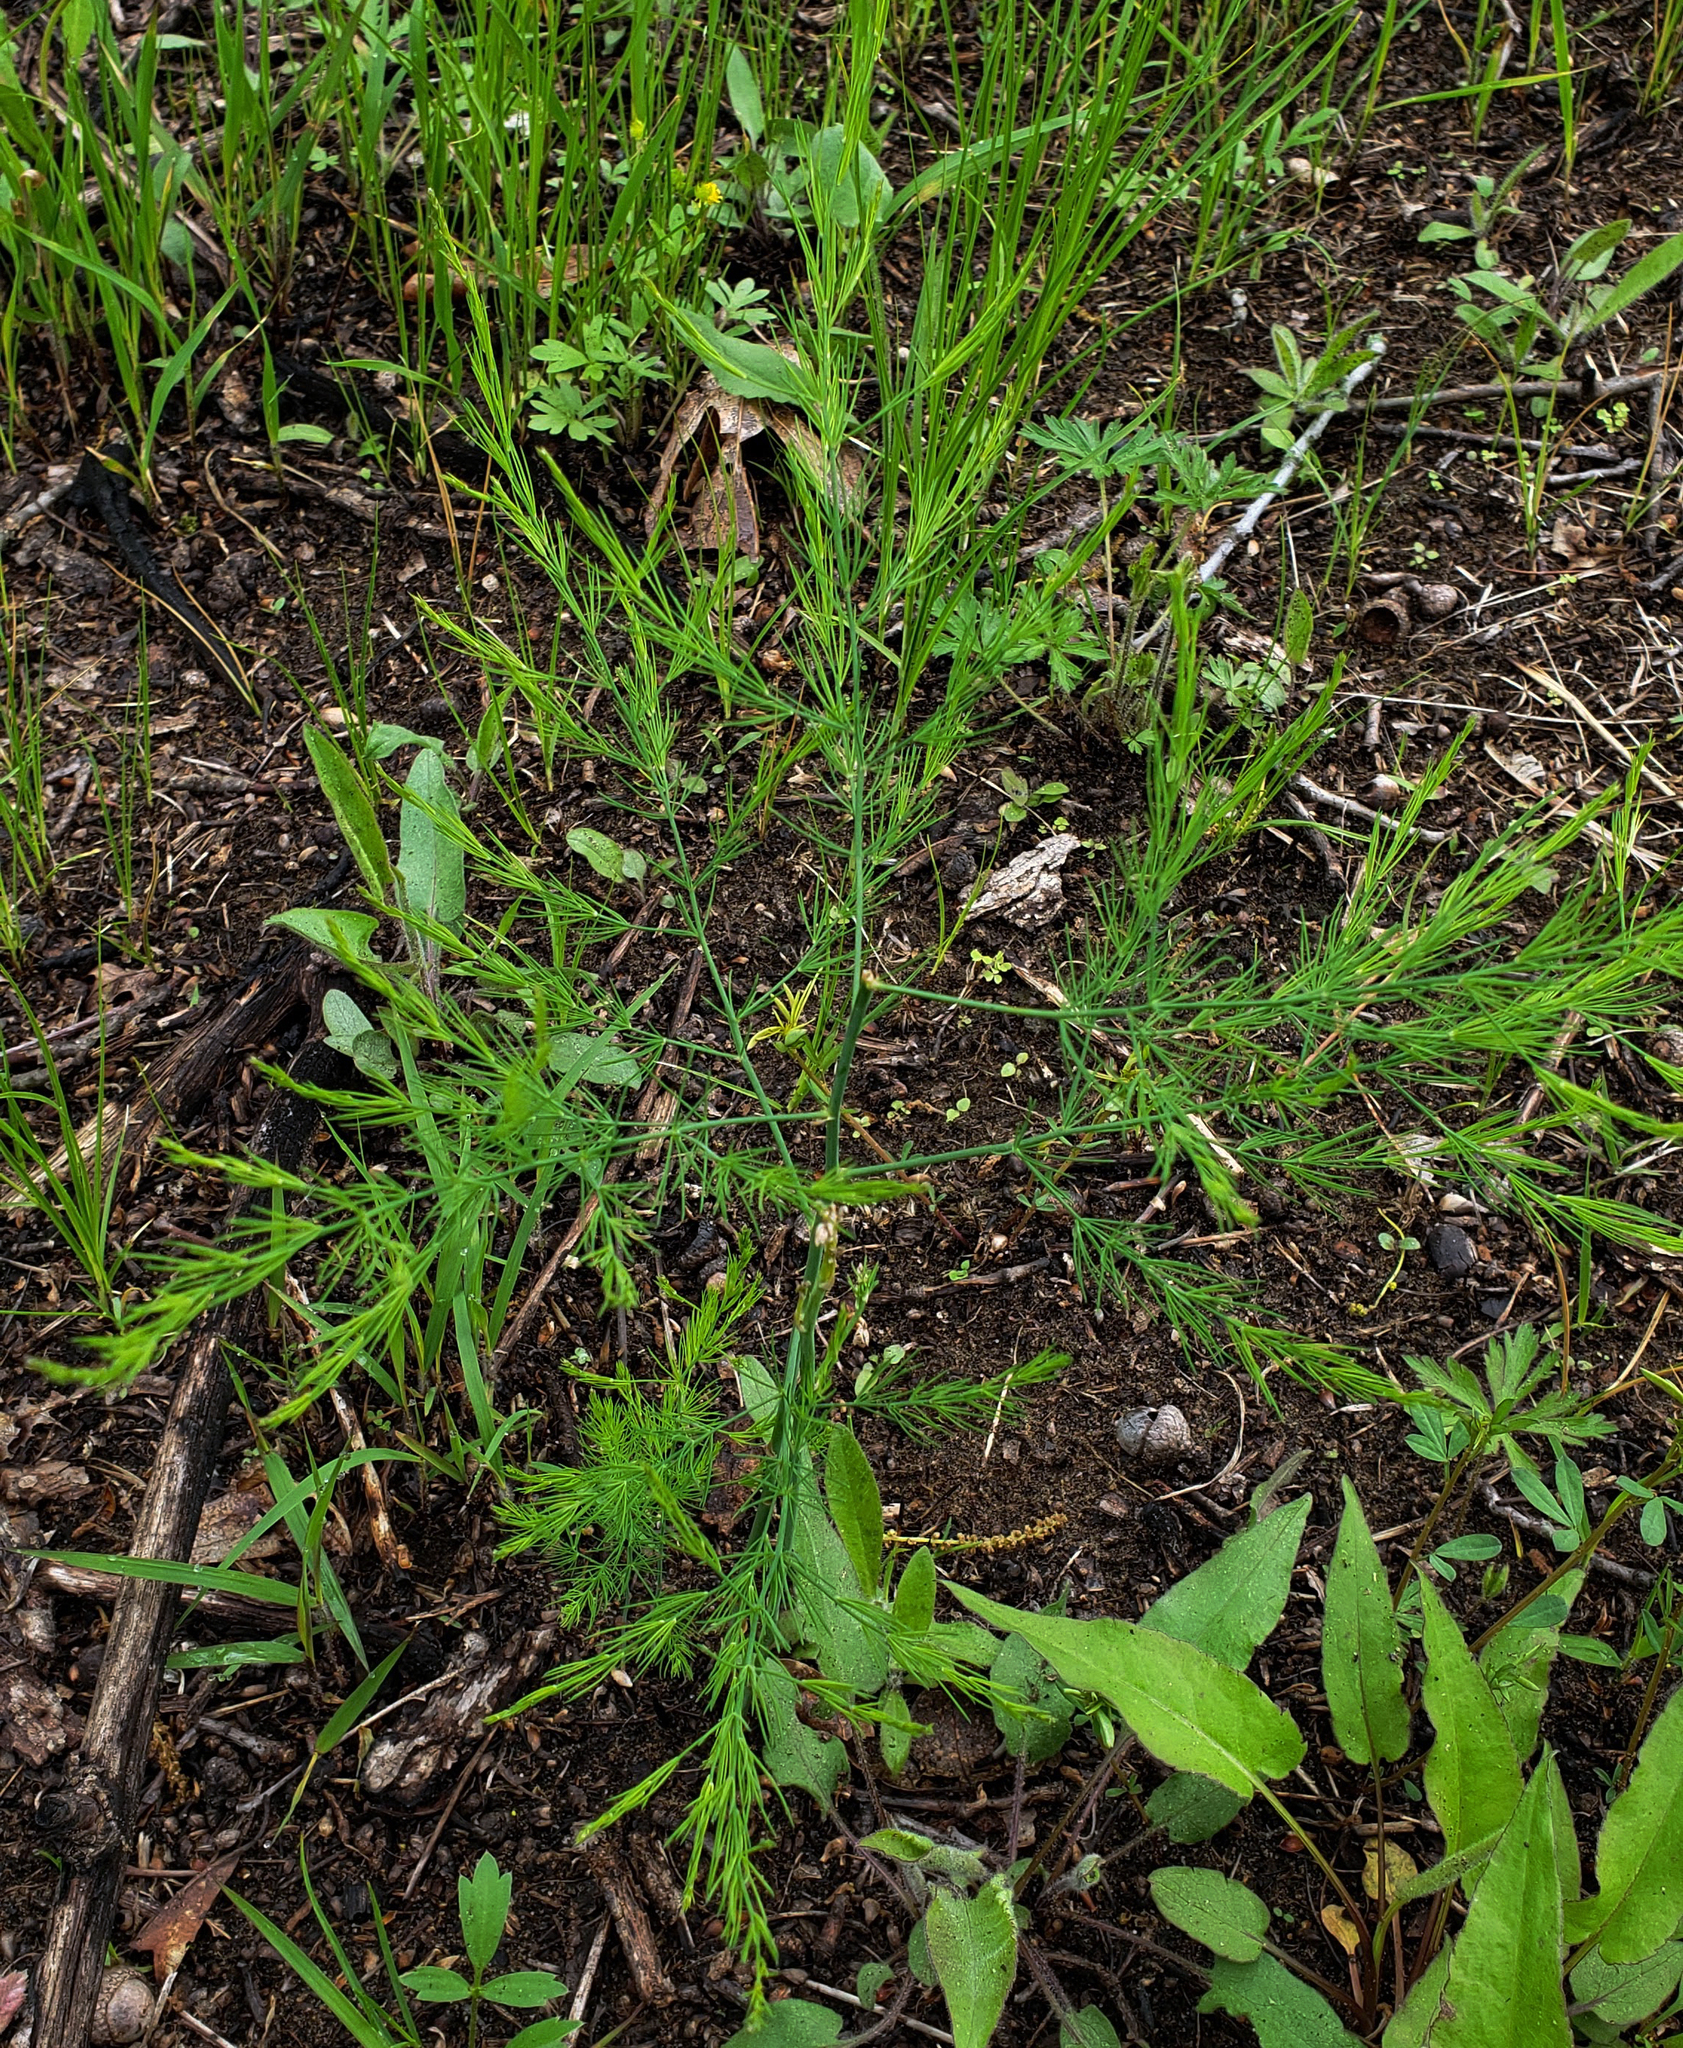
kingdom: Plantae
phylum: Tracheophyta
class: Liliopsida
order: Asparagales
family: Asparagaceae
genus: Asparagus
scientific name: Asparagus officinalis
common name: Garden asparagus
